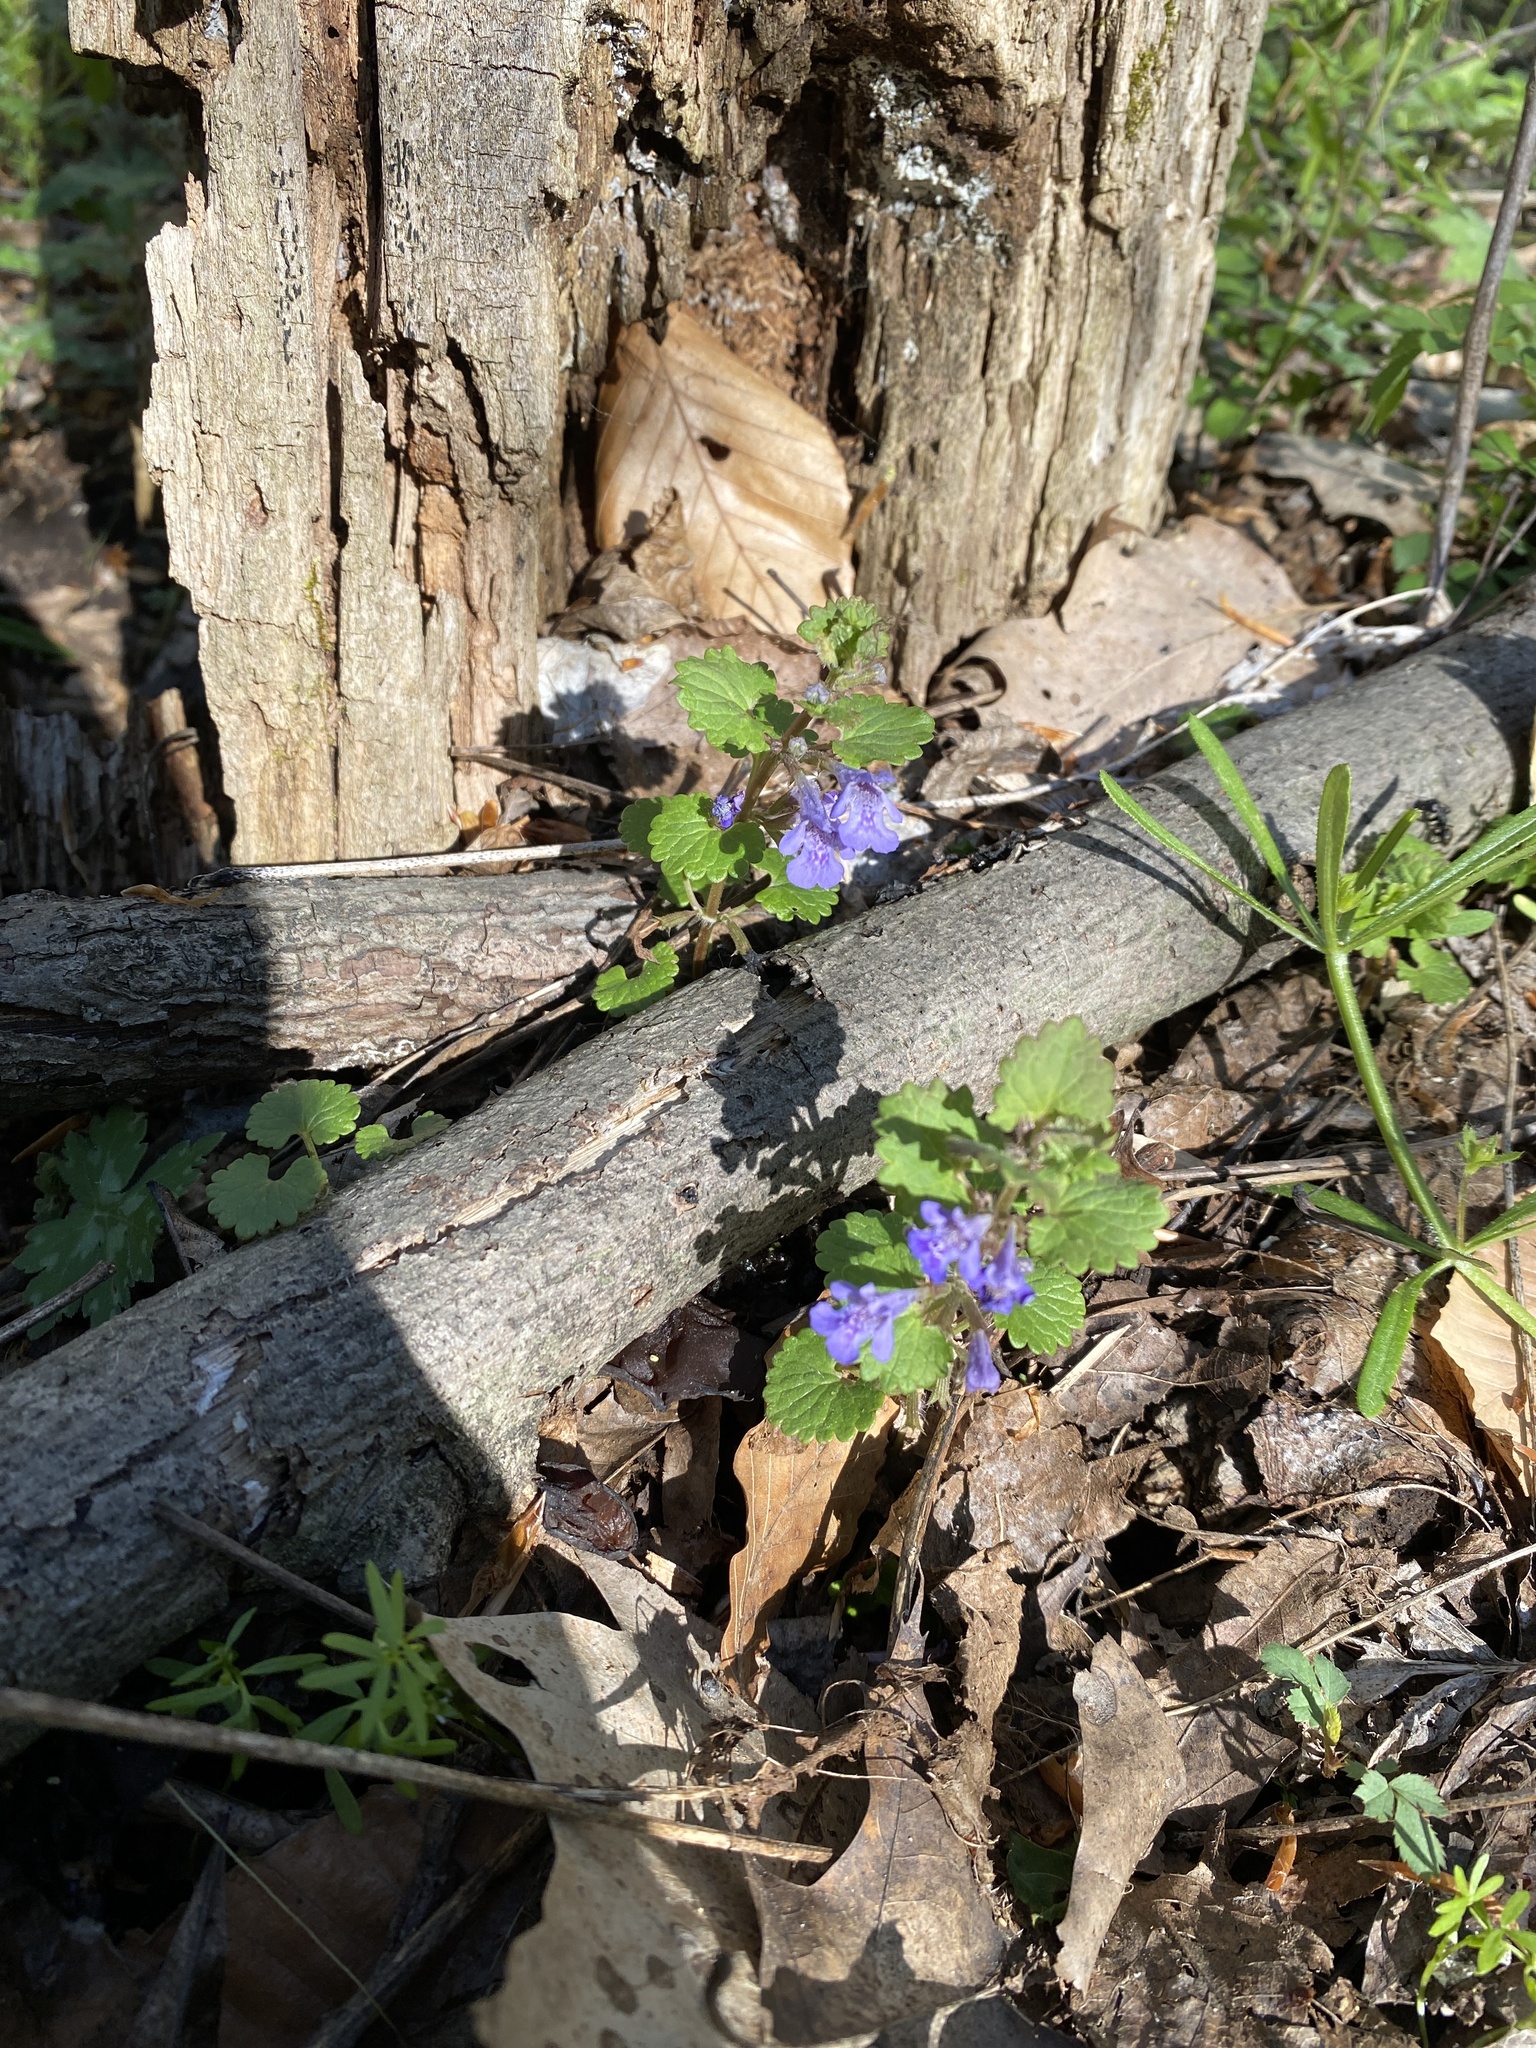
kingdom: Plantae
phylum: Tracheophyta
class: Magnoliopsida
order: Lamiales
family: Lamiaceae
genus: Glechoma
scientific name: Glechoma hederacea
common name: Ground ivy
